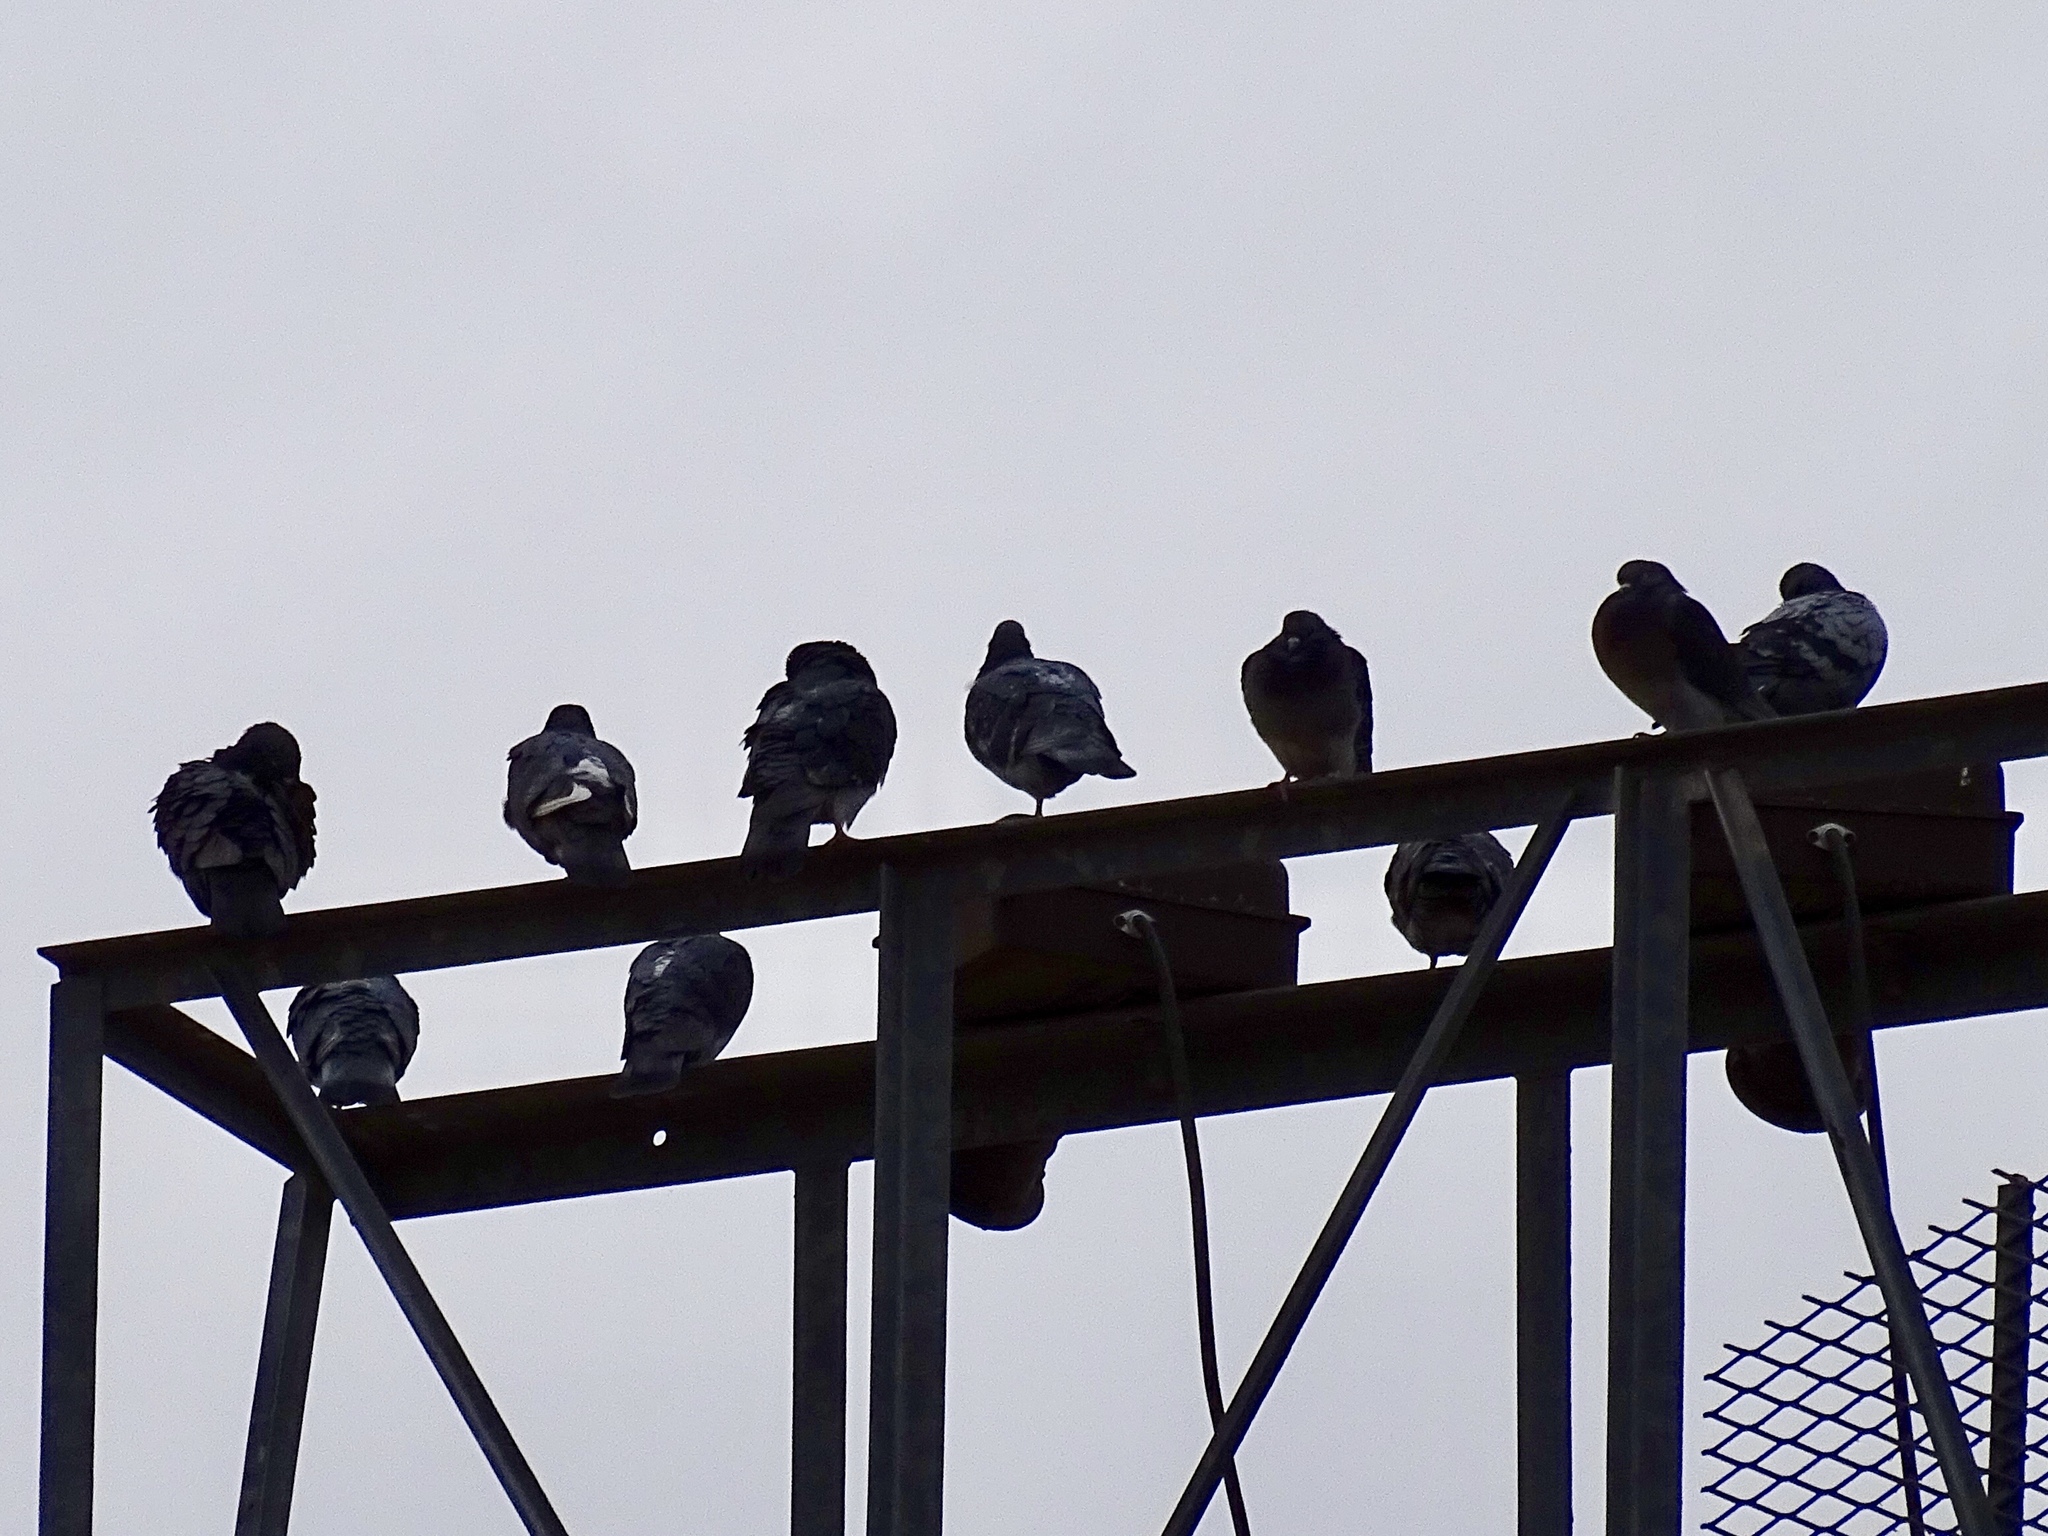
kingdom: Animalia
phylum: Chordata
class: Aves
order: Columbiformes
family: Columbidae
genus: Columba
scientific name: Columba livia
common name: Rock pigeon
